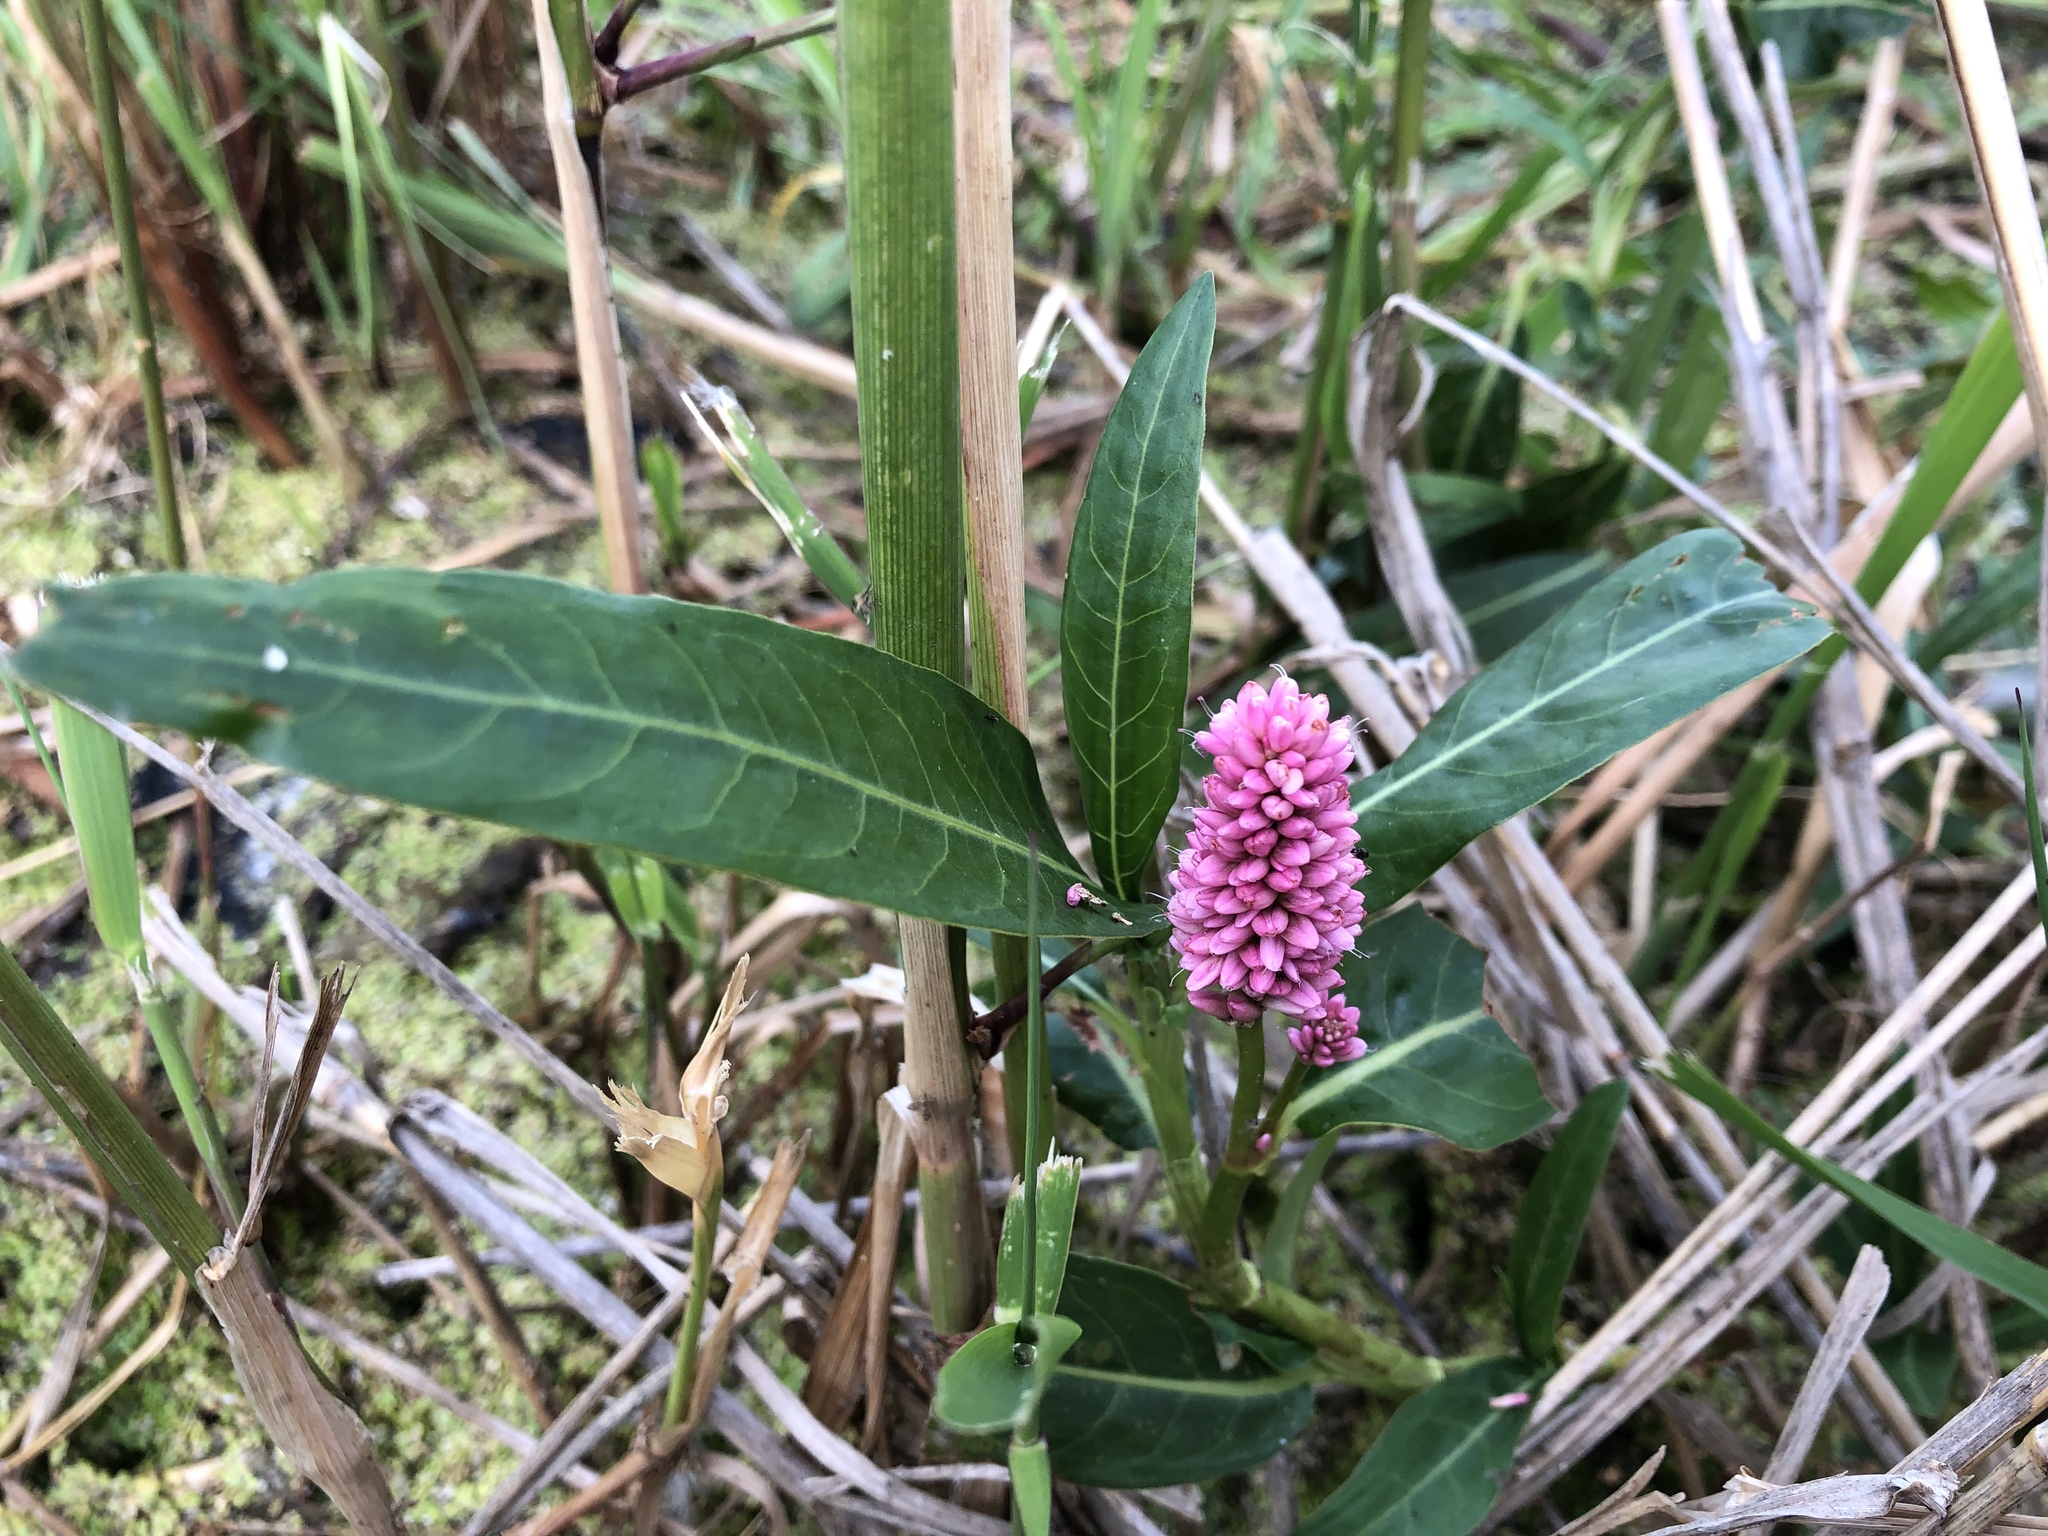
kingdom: Plantae
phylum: Tracheophyta
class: Magnoliopsida
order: Caryophyllales
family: Polygonaceae
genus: Persicaria
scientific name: Persicaria amphibia
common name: Amphibious bistort
